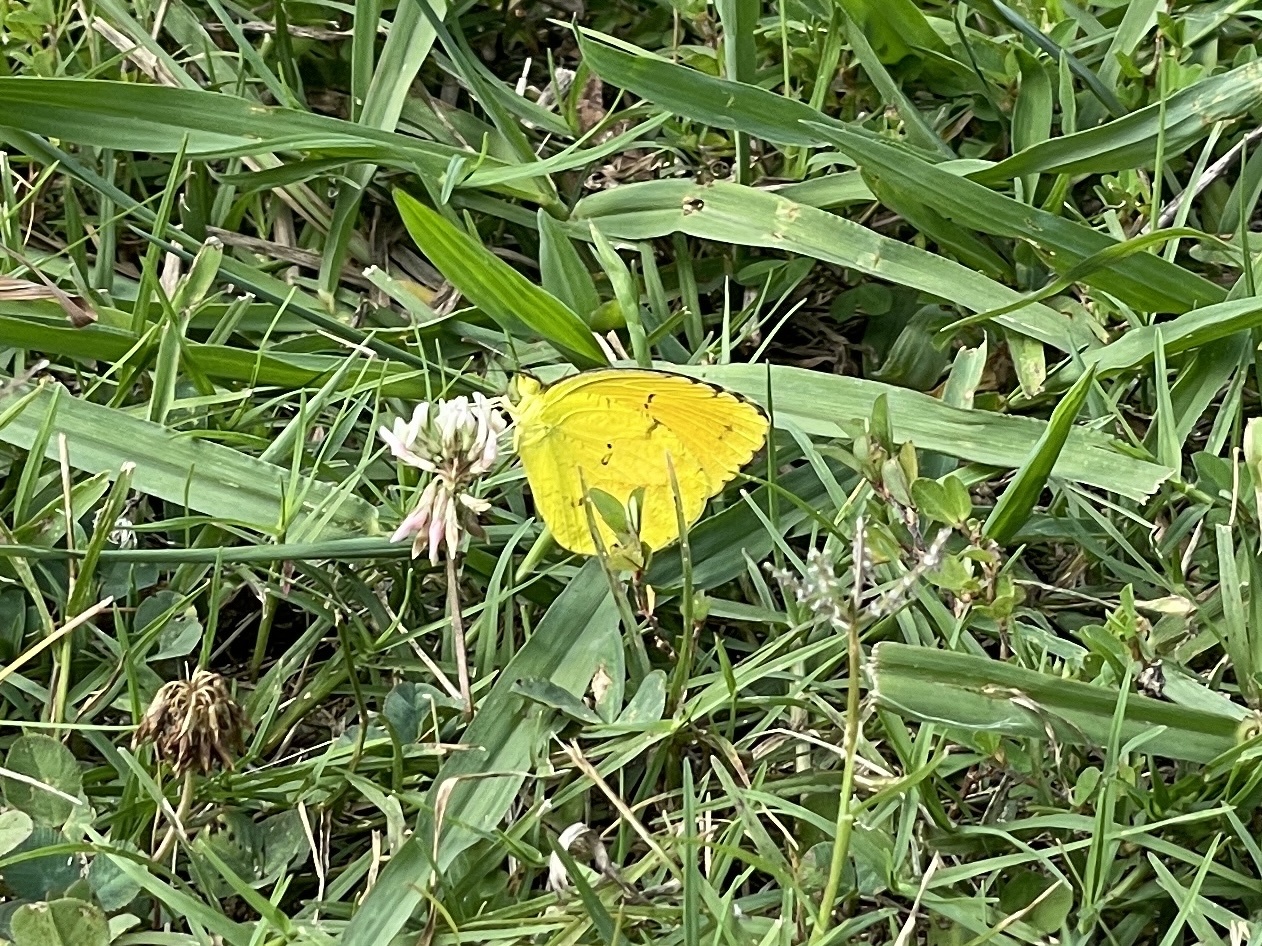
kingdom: Animalia
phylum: Arthropoda
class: Insecta
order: Lepidoptera
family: Pieridae
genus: Abaeis
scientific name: Abaeis nicippe
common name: Sleepy orange
